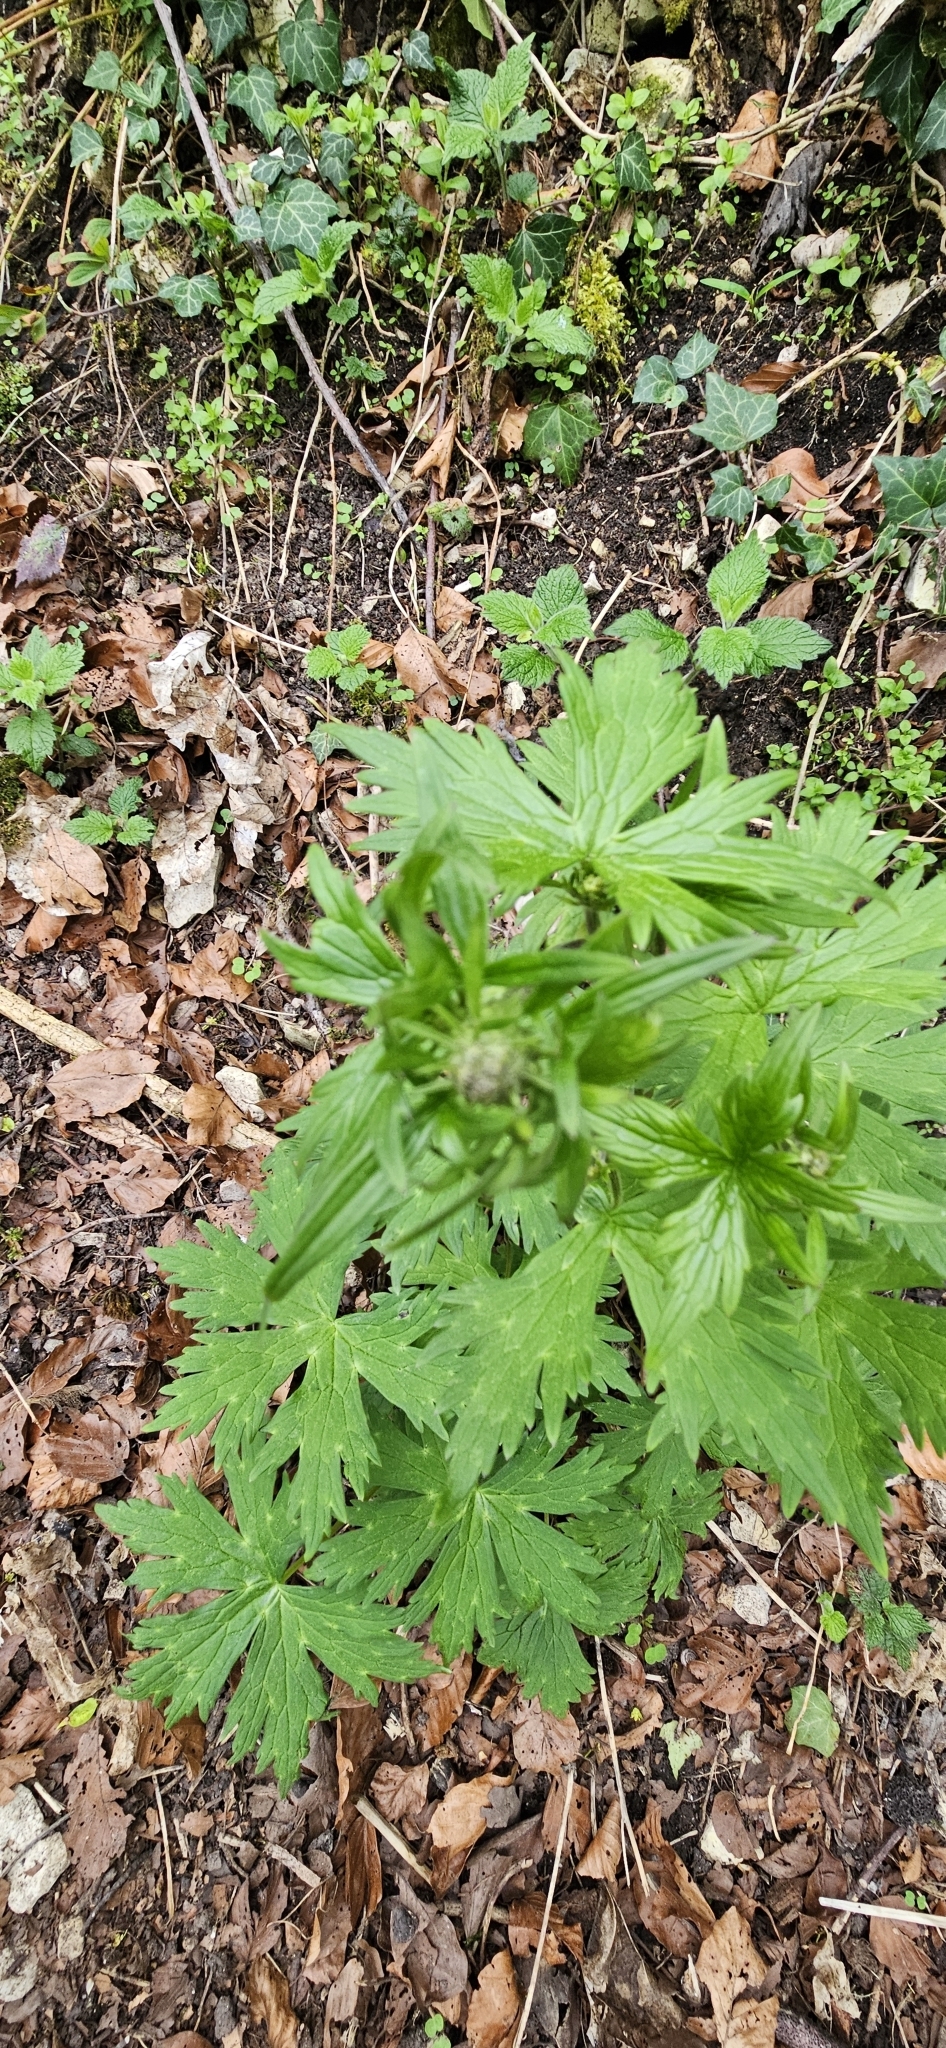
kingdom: Plantae
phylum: Tracheophyta
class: Magnoliopsida
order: Ranunculales
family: Ranunculaceae
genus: Aconitum
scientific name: Aconitum lycoctonum
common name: Wolf's-bane
